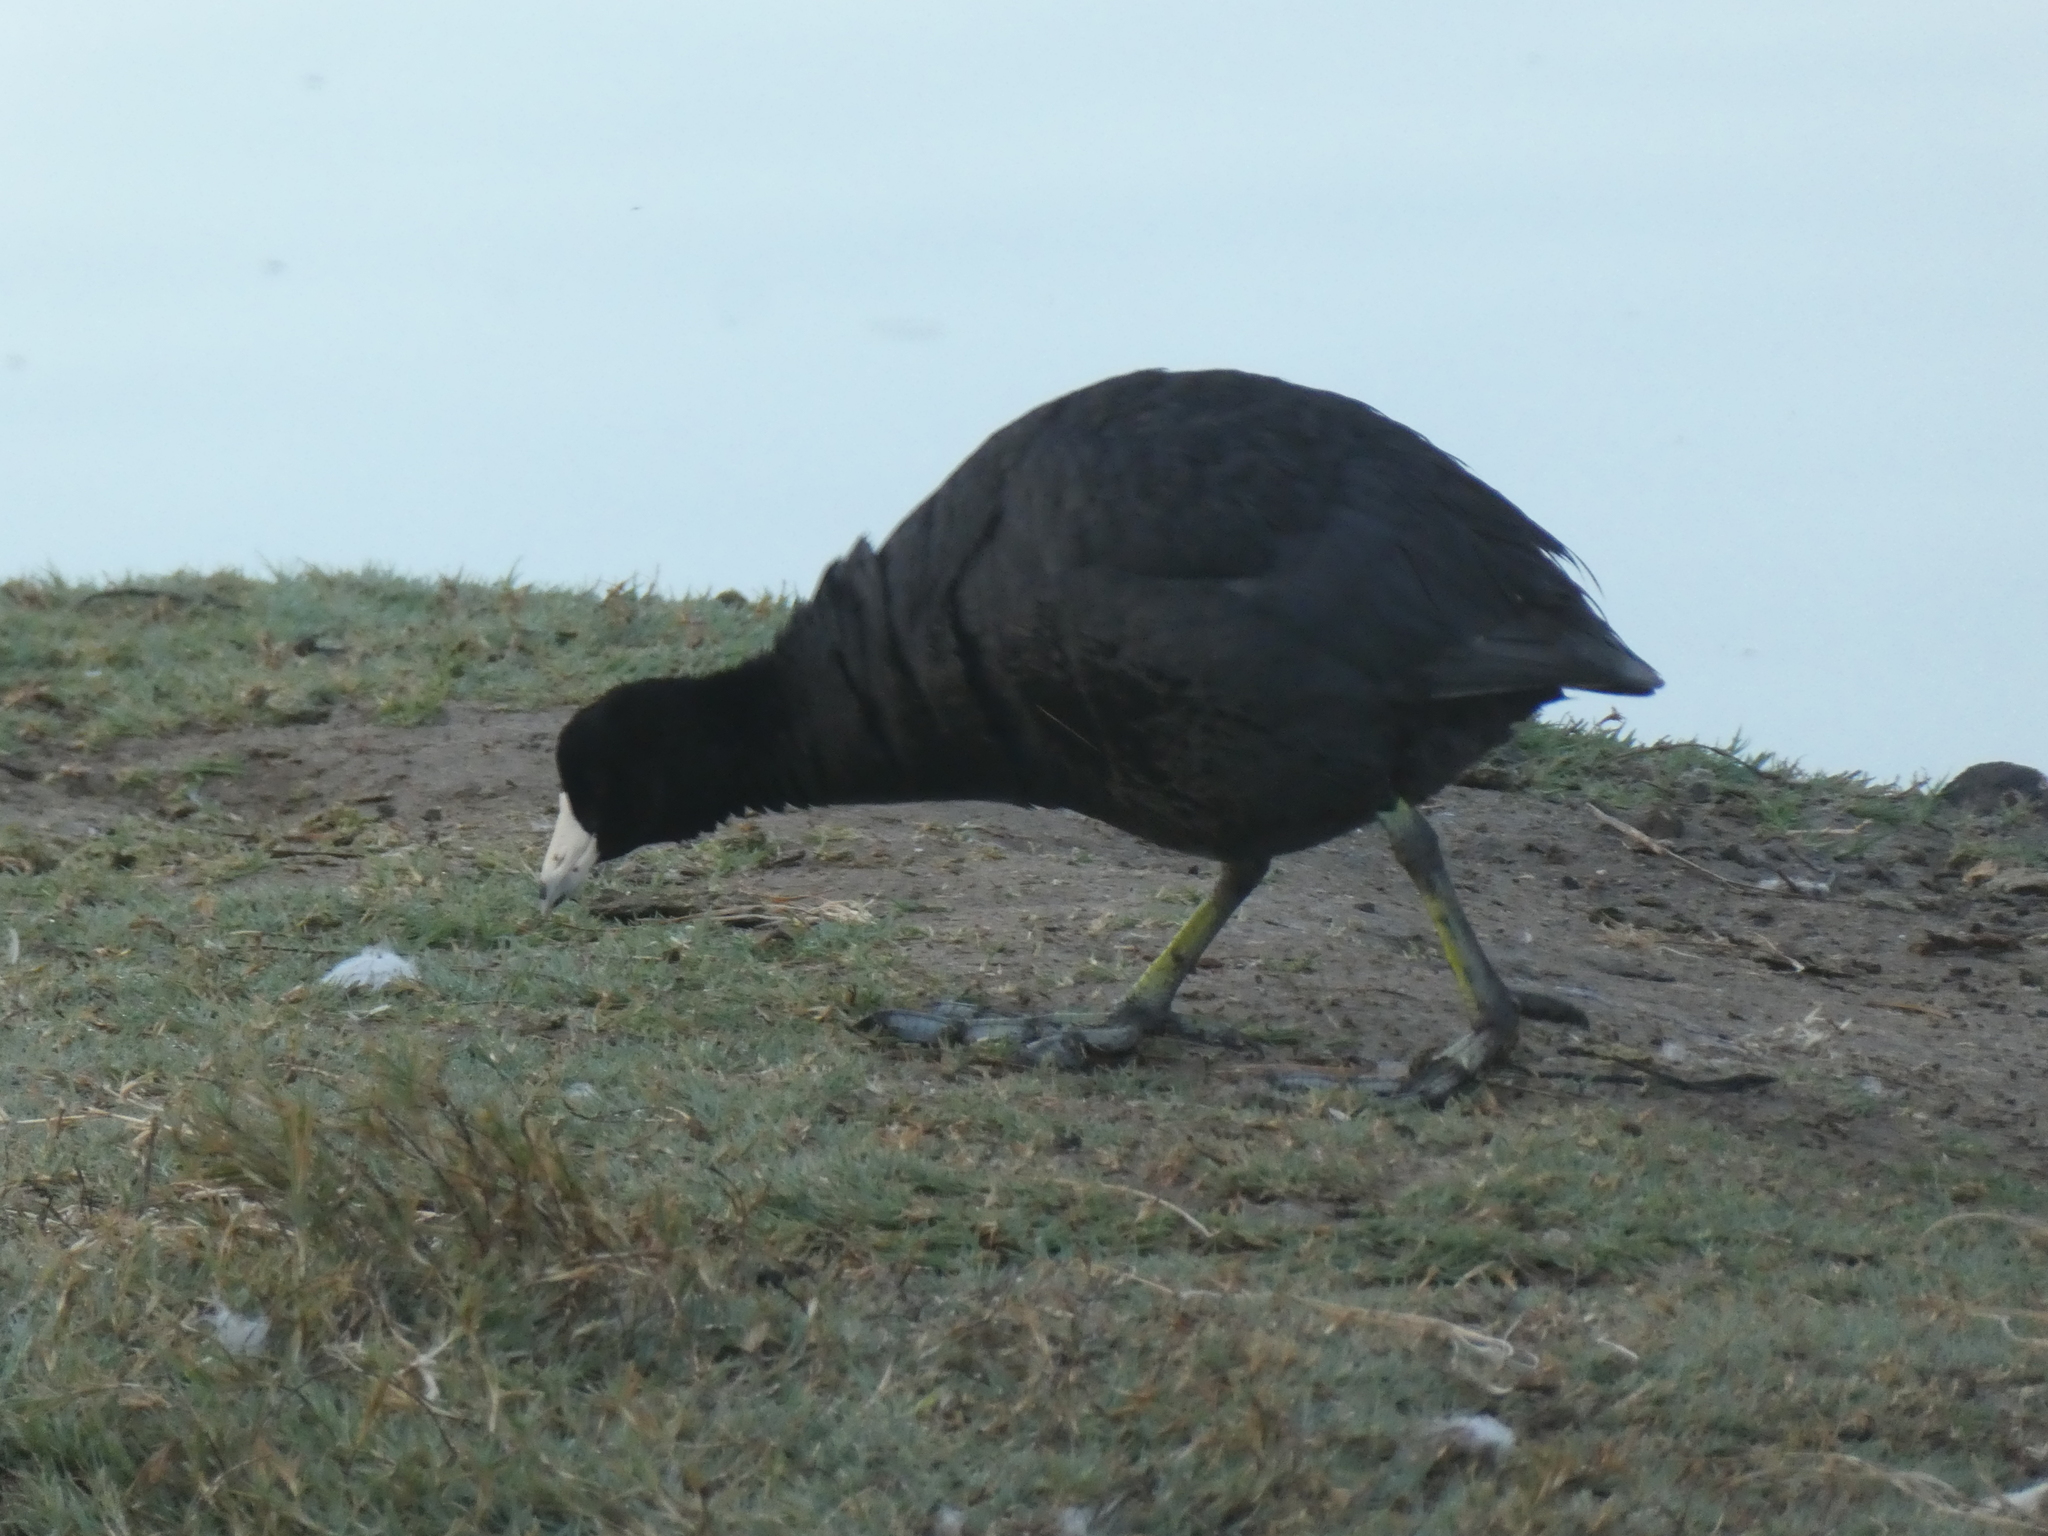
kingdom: Animalia
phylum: Chordata
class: Aves
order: Gruiformes
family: Rallidae
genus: Fulica
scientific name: Fulica americana
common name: American coot
